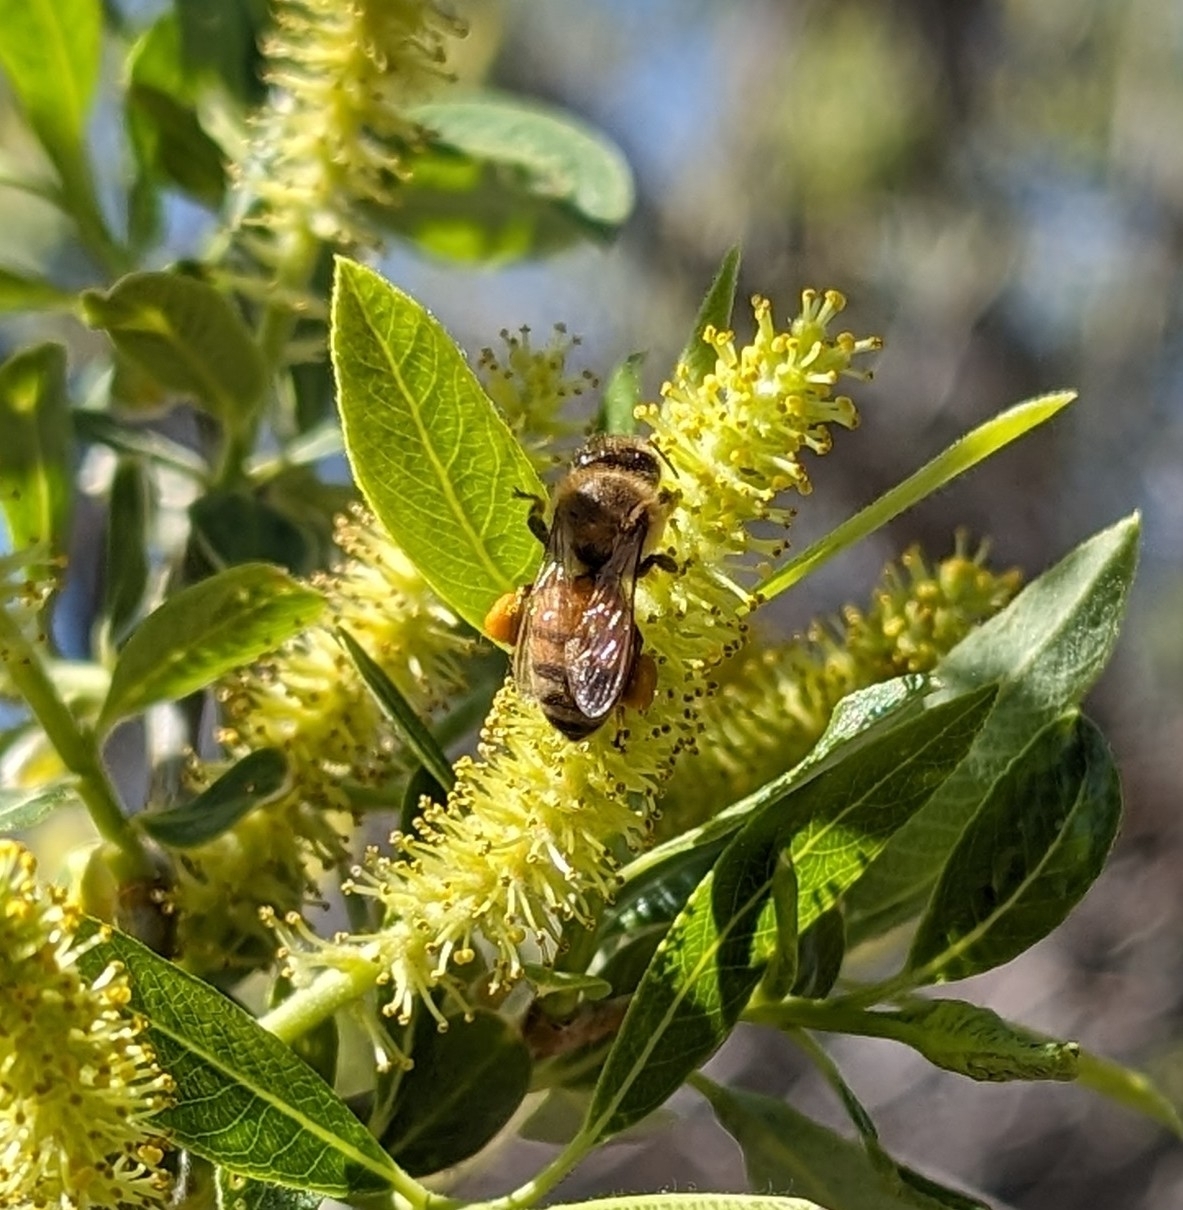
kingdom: Animalia
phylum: Arthropoda
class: Insecta
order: Hymenoptera
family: Apidae
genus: Apis
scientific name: Apis mellifera
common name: Honey bee
